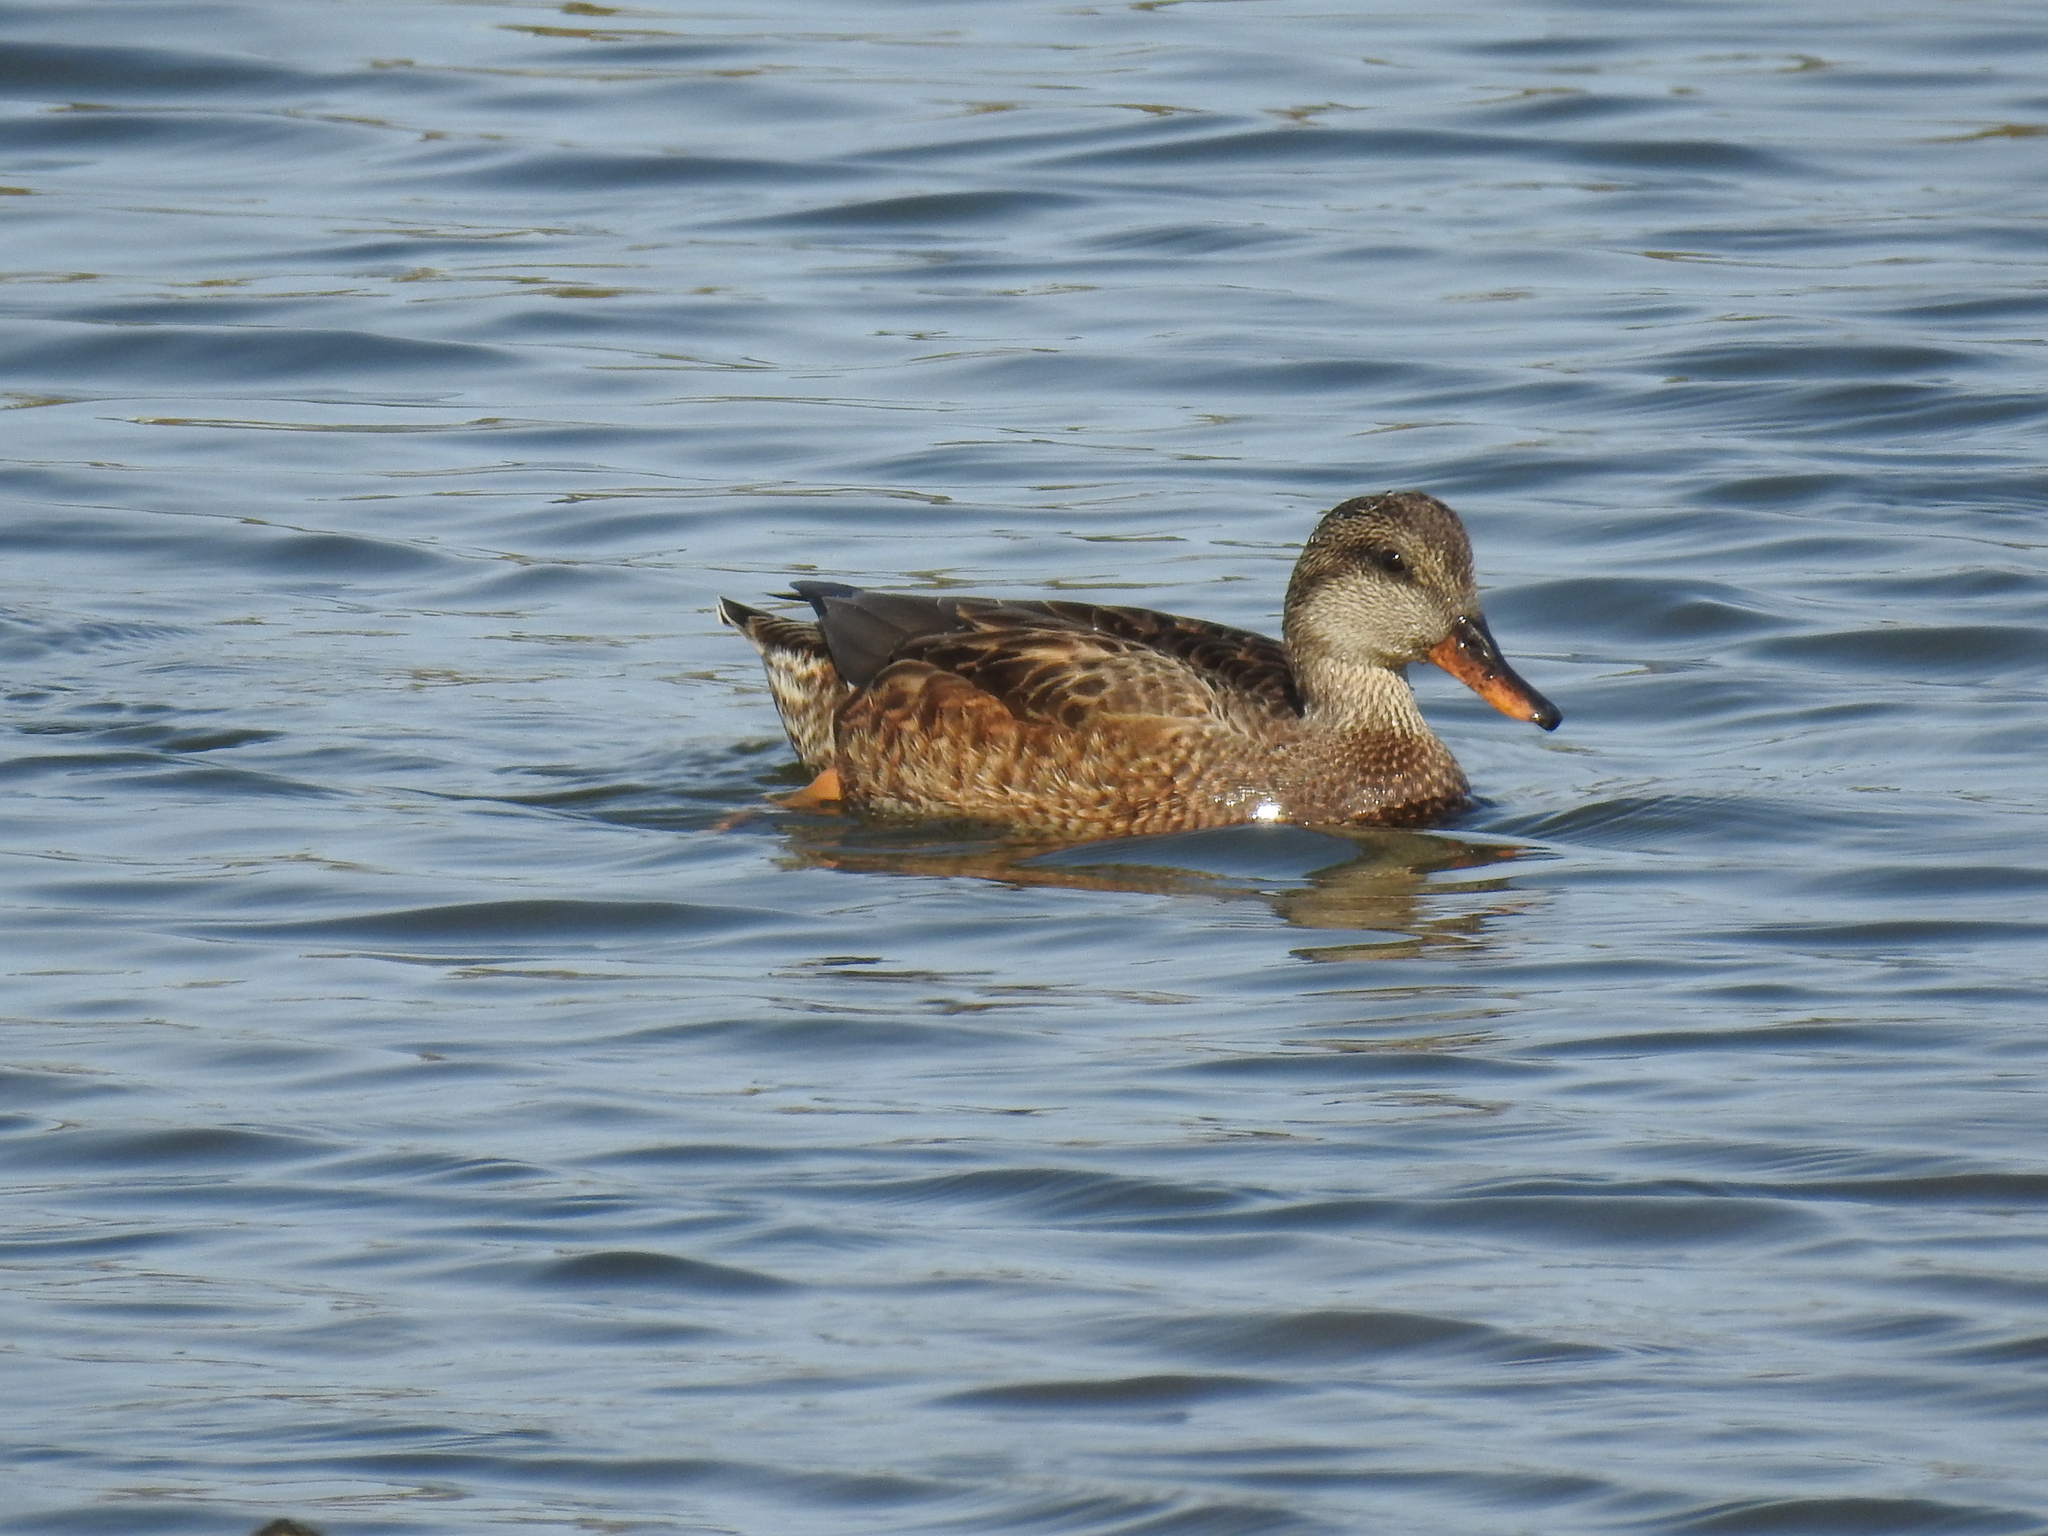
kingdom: Animalia
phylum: Chordata
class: Aves
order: Anseriformes
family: Anatidae
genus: Mareca
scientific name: Mareca strepera
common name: Gadwall
